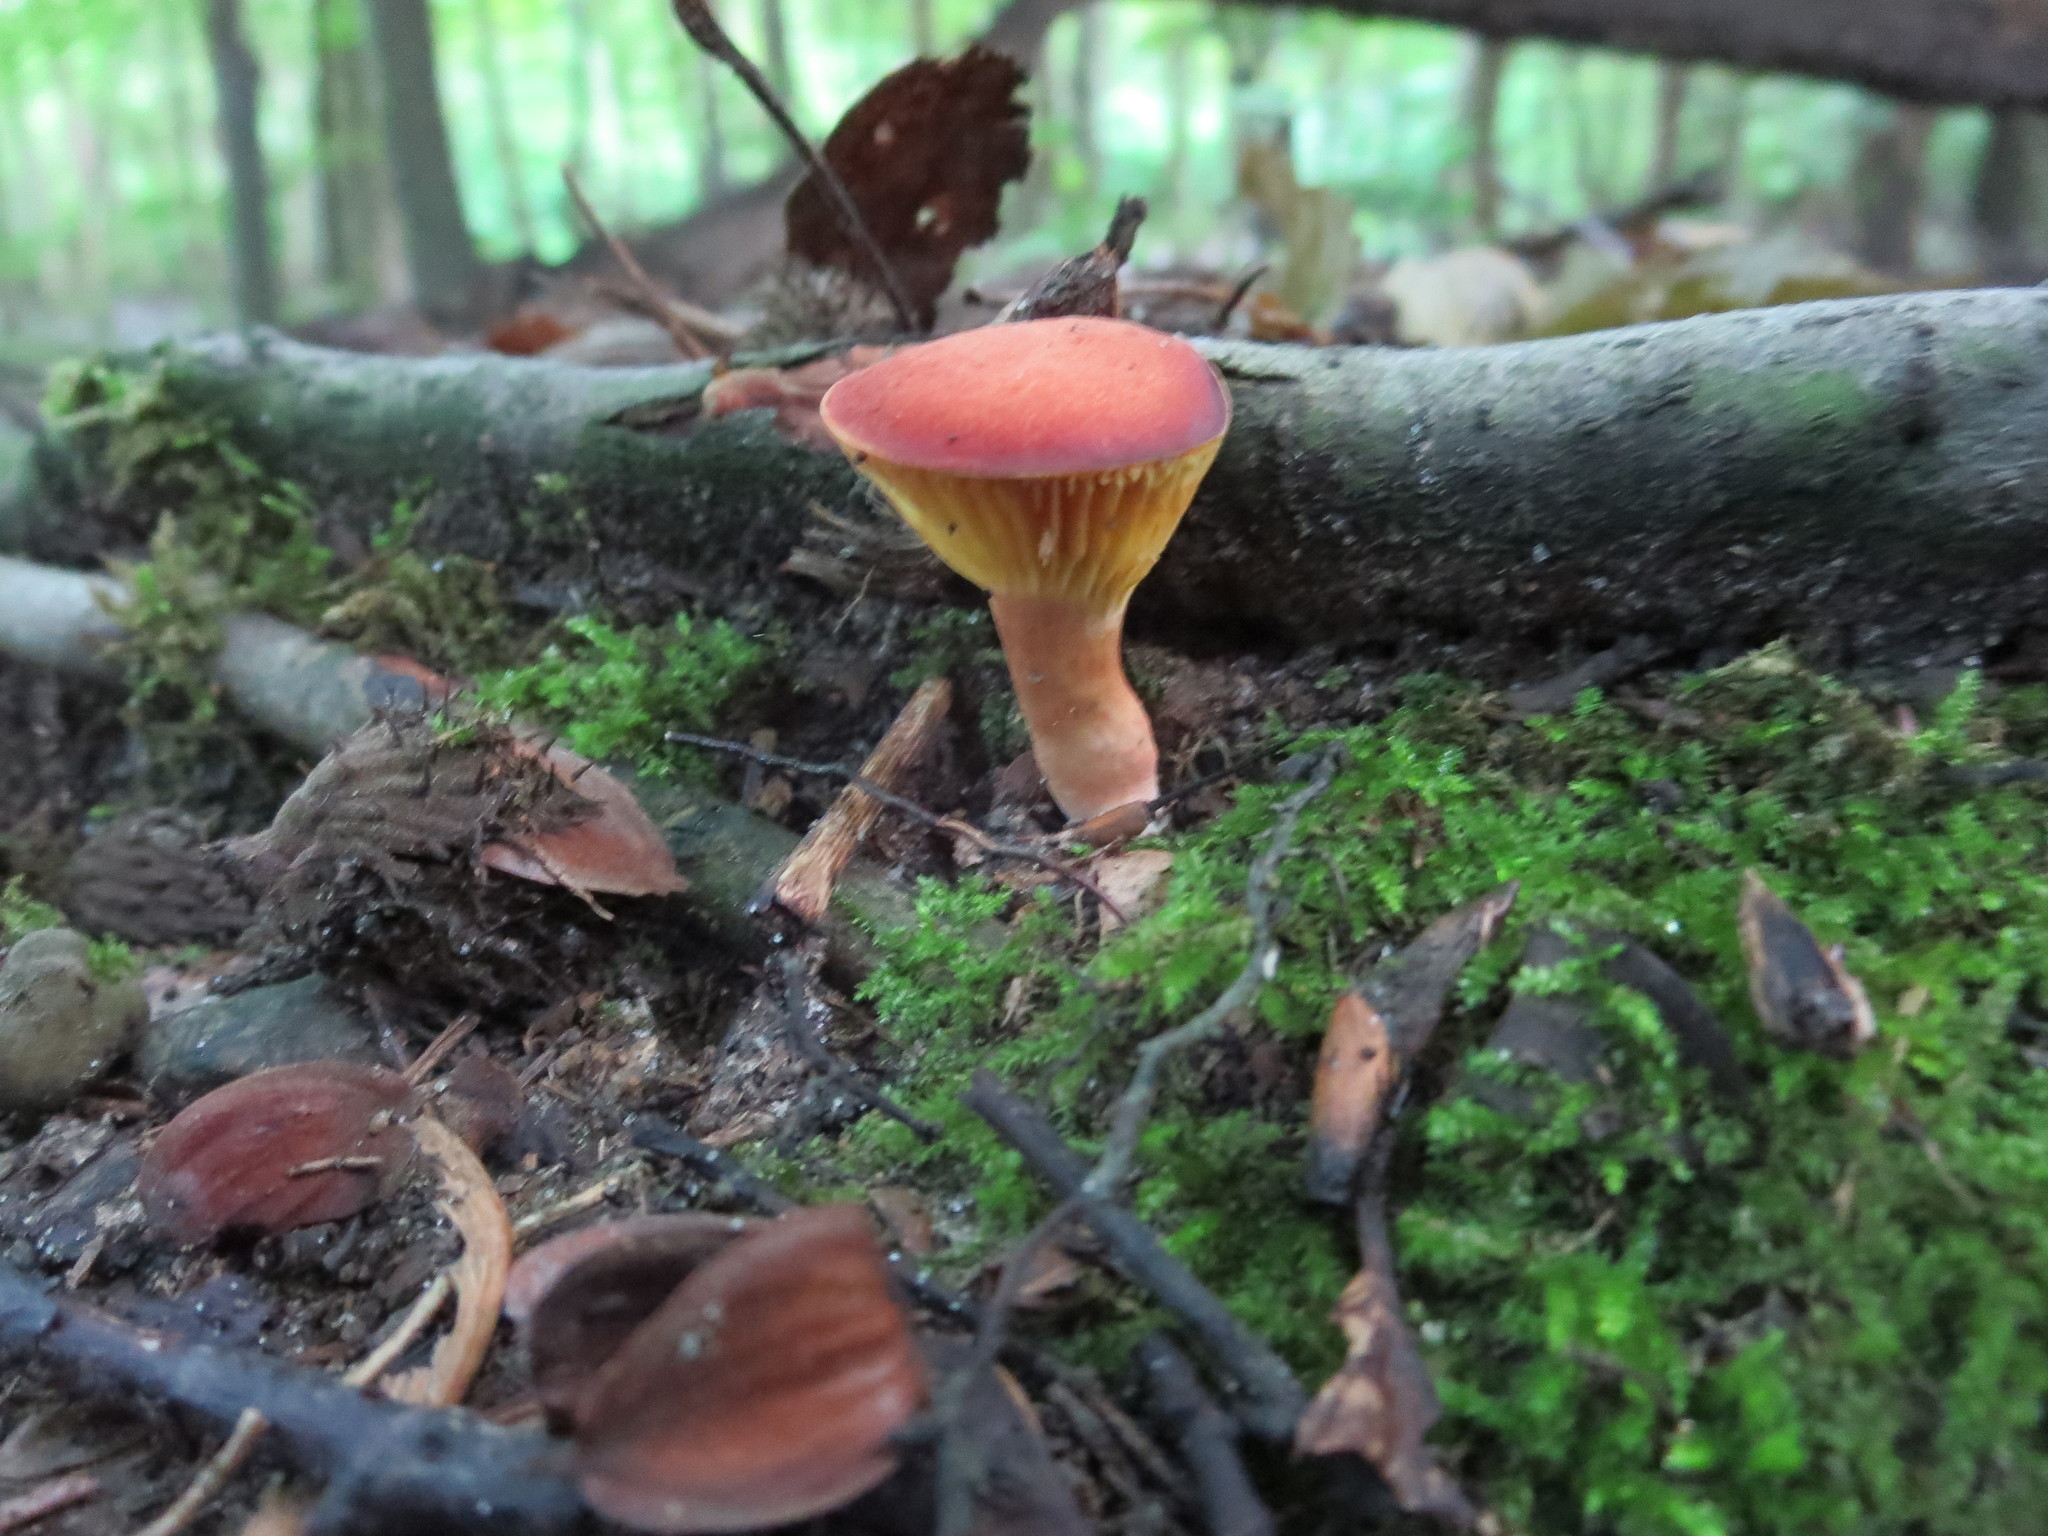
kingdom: Fungi
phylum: Basidiomycota
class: Agaricomycetes
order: Boletales
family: Boletaceae
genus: Phylloporus
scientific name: Phylloporus leucomycelinus
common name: Gilled bolete
